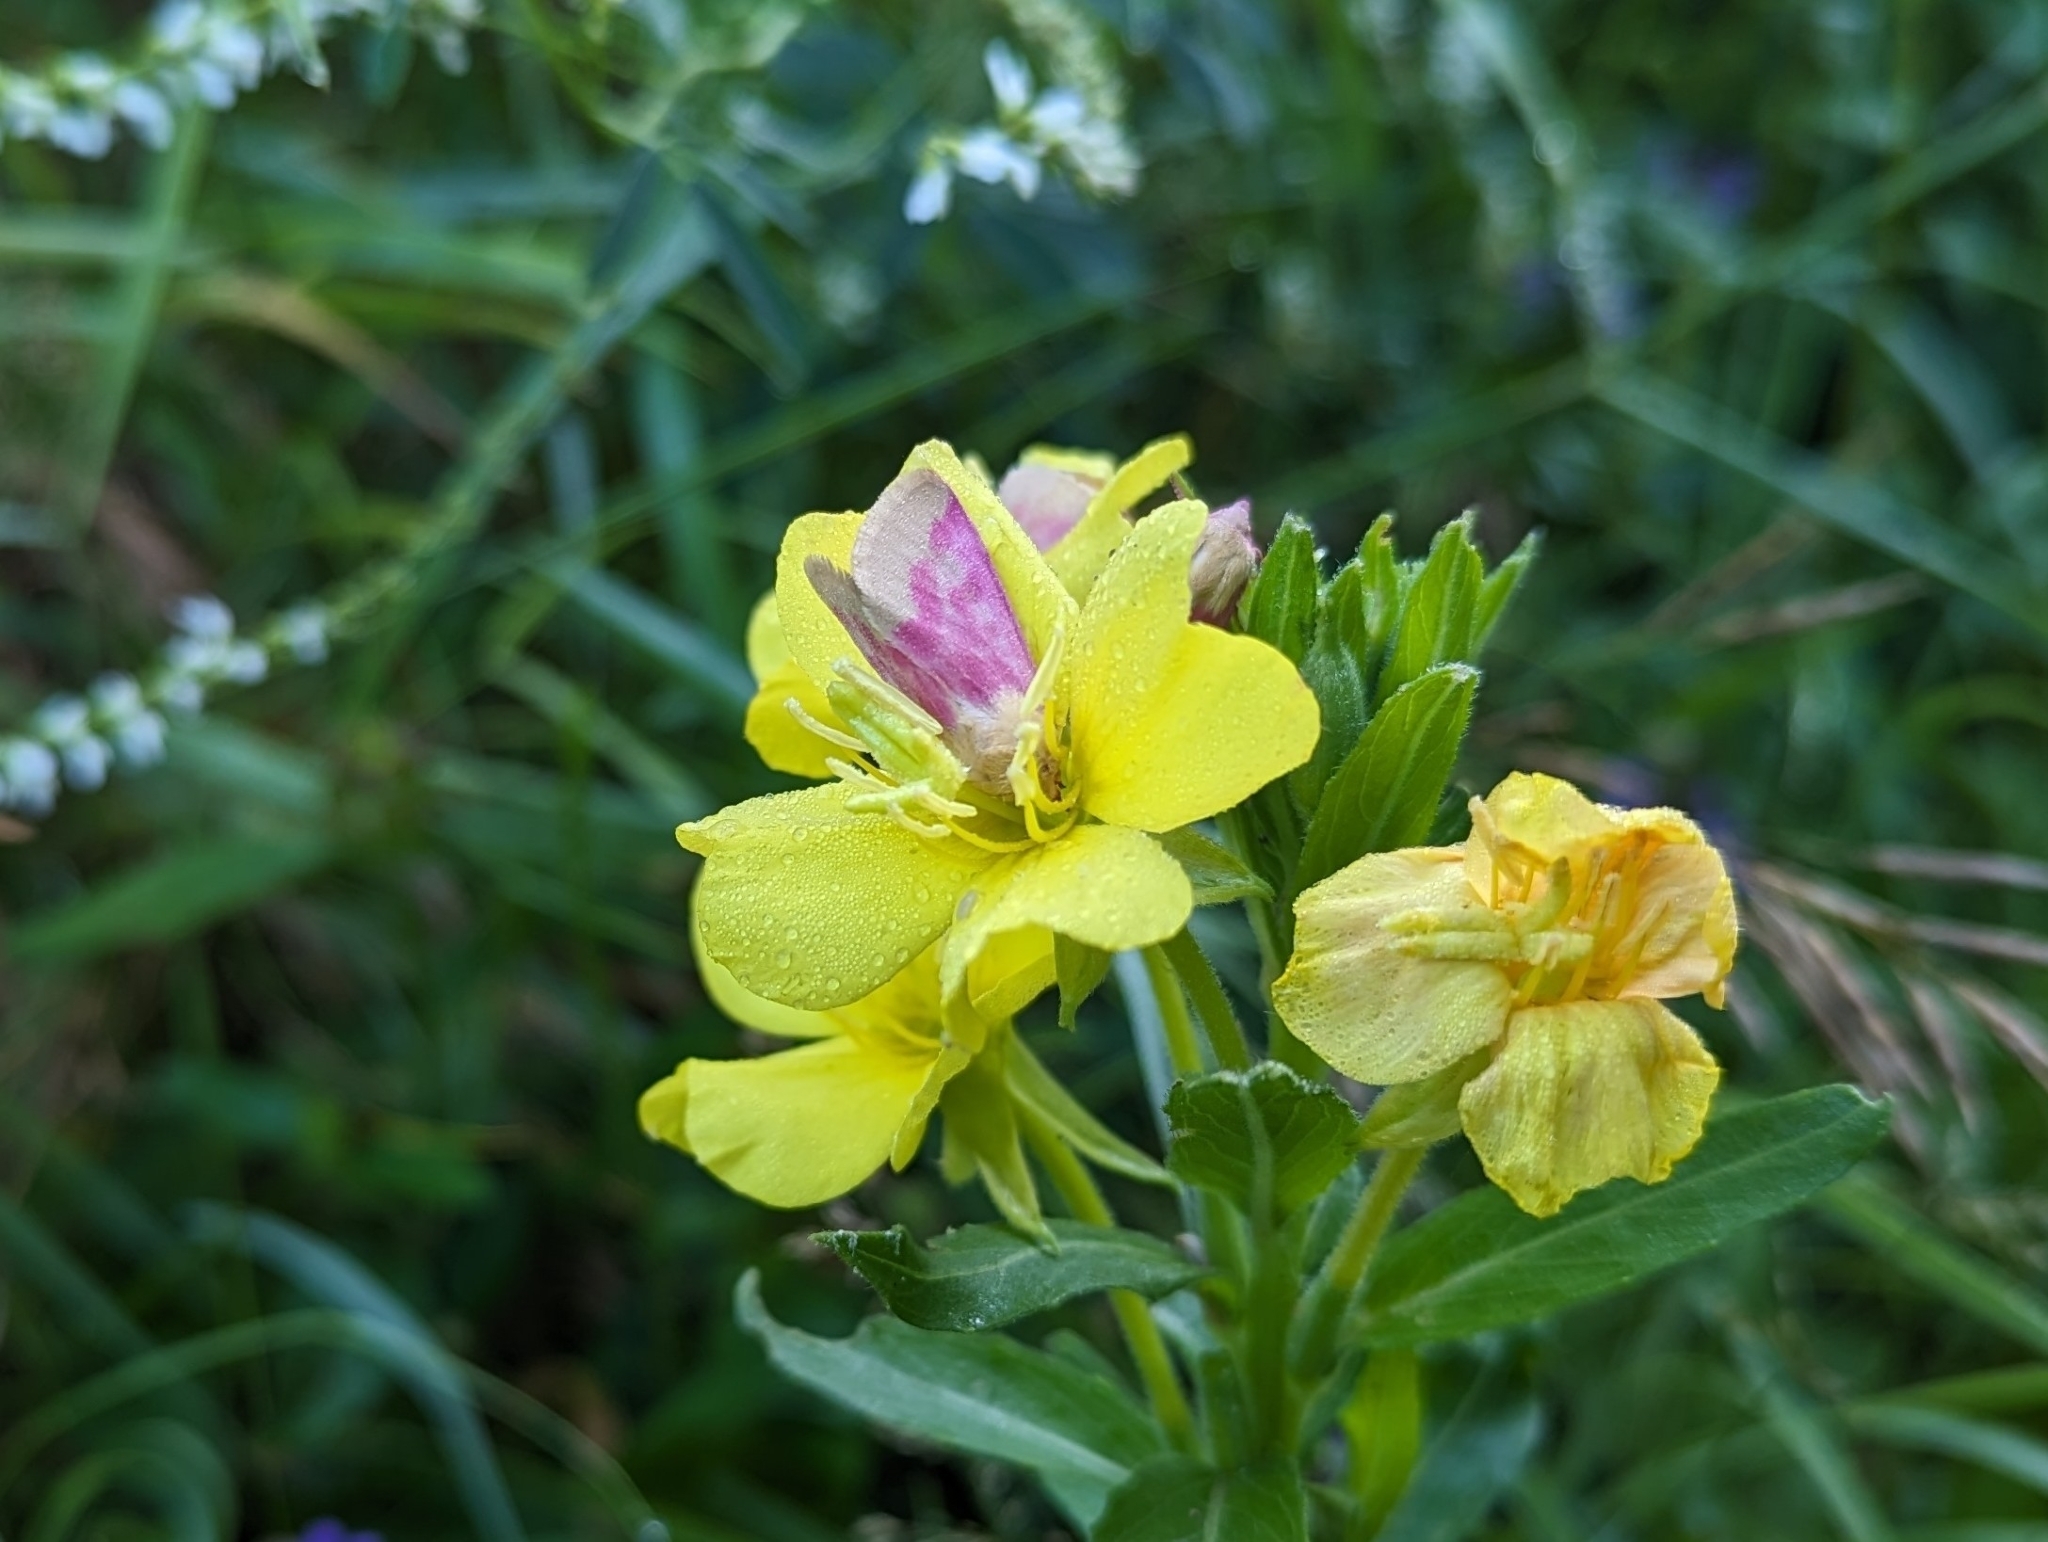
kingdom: Animalia
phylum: Arthropoda
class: Insecta
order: Lepidoptera
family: Noctuidae
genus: Schinia
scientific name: Schinia florida
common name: Primrose moth
